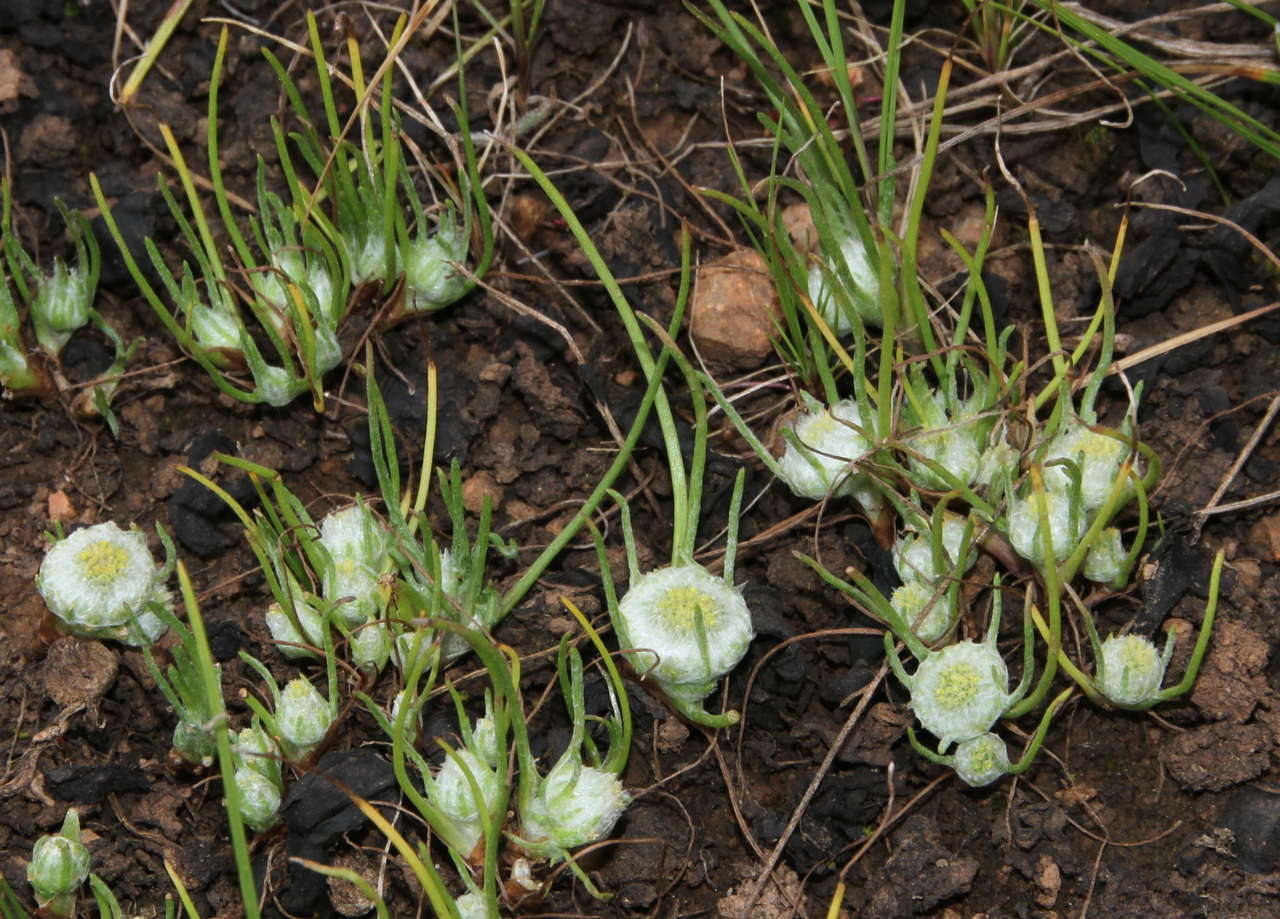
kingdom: Plantae
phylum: Tracheophyta
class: Magnoliopsida
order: Asterales
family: Asteraceae
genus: Myriocephalus
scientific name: Myriocephalus rhizocephalus
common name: Tufted woolly-heads
